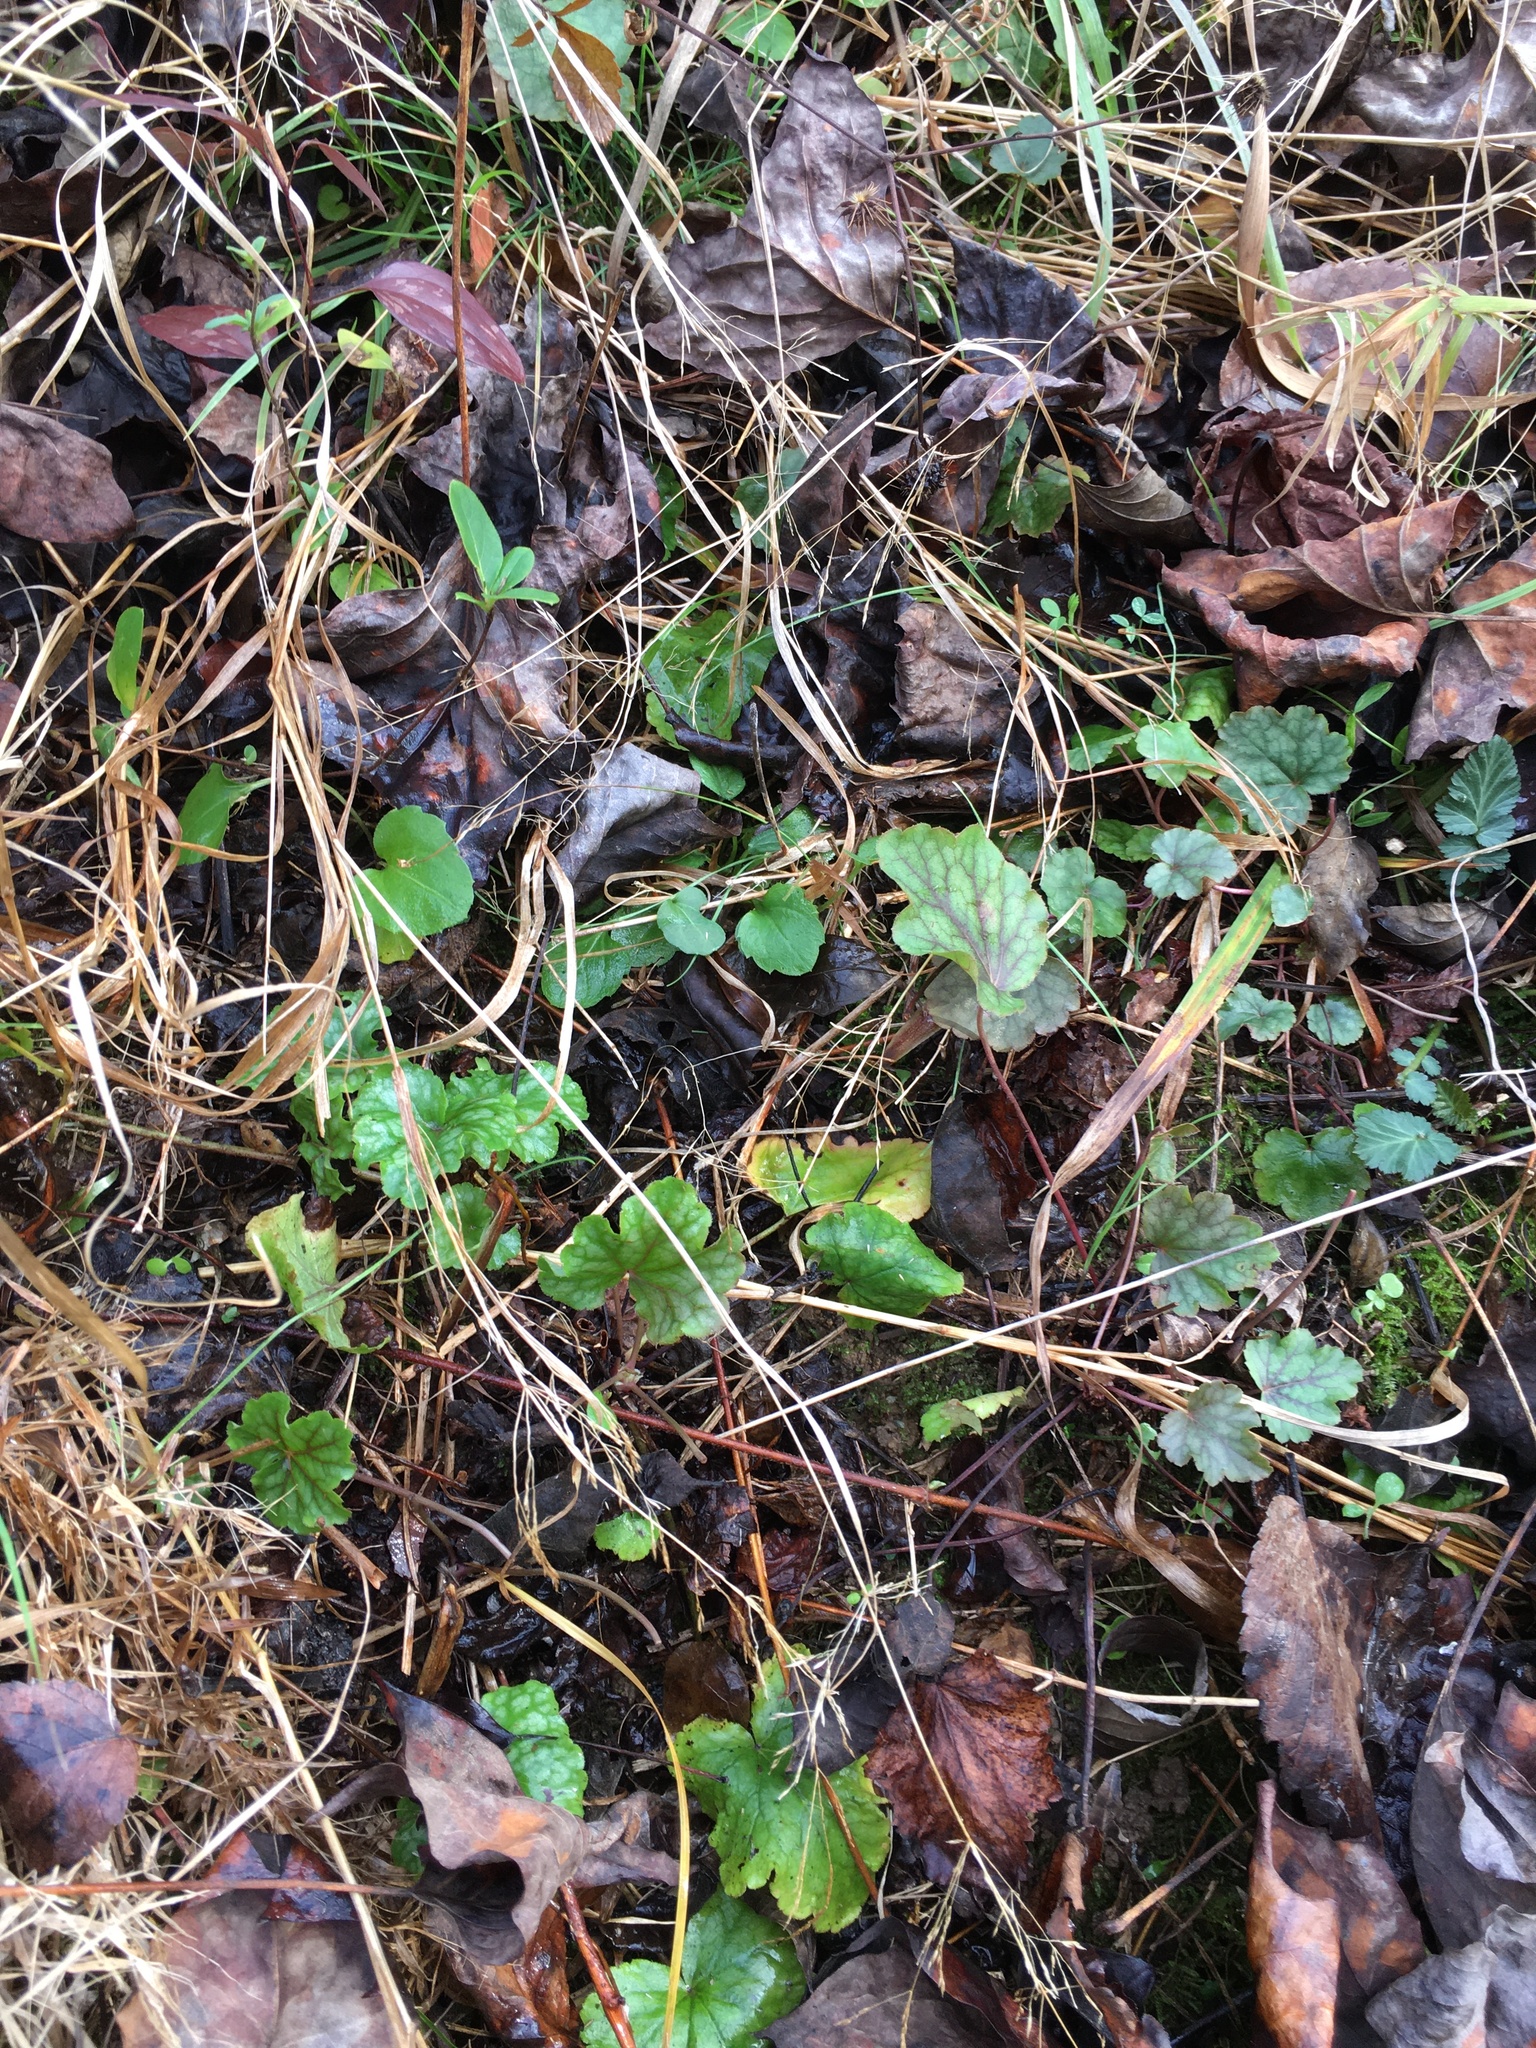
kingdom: Plantae
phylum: Tracheophyta
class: Magnoliopsida
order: Saxifragales
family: Saxifragaceae
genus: Heuchera
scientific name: Heuchera caroliniana
